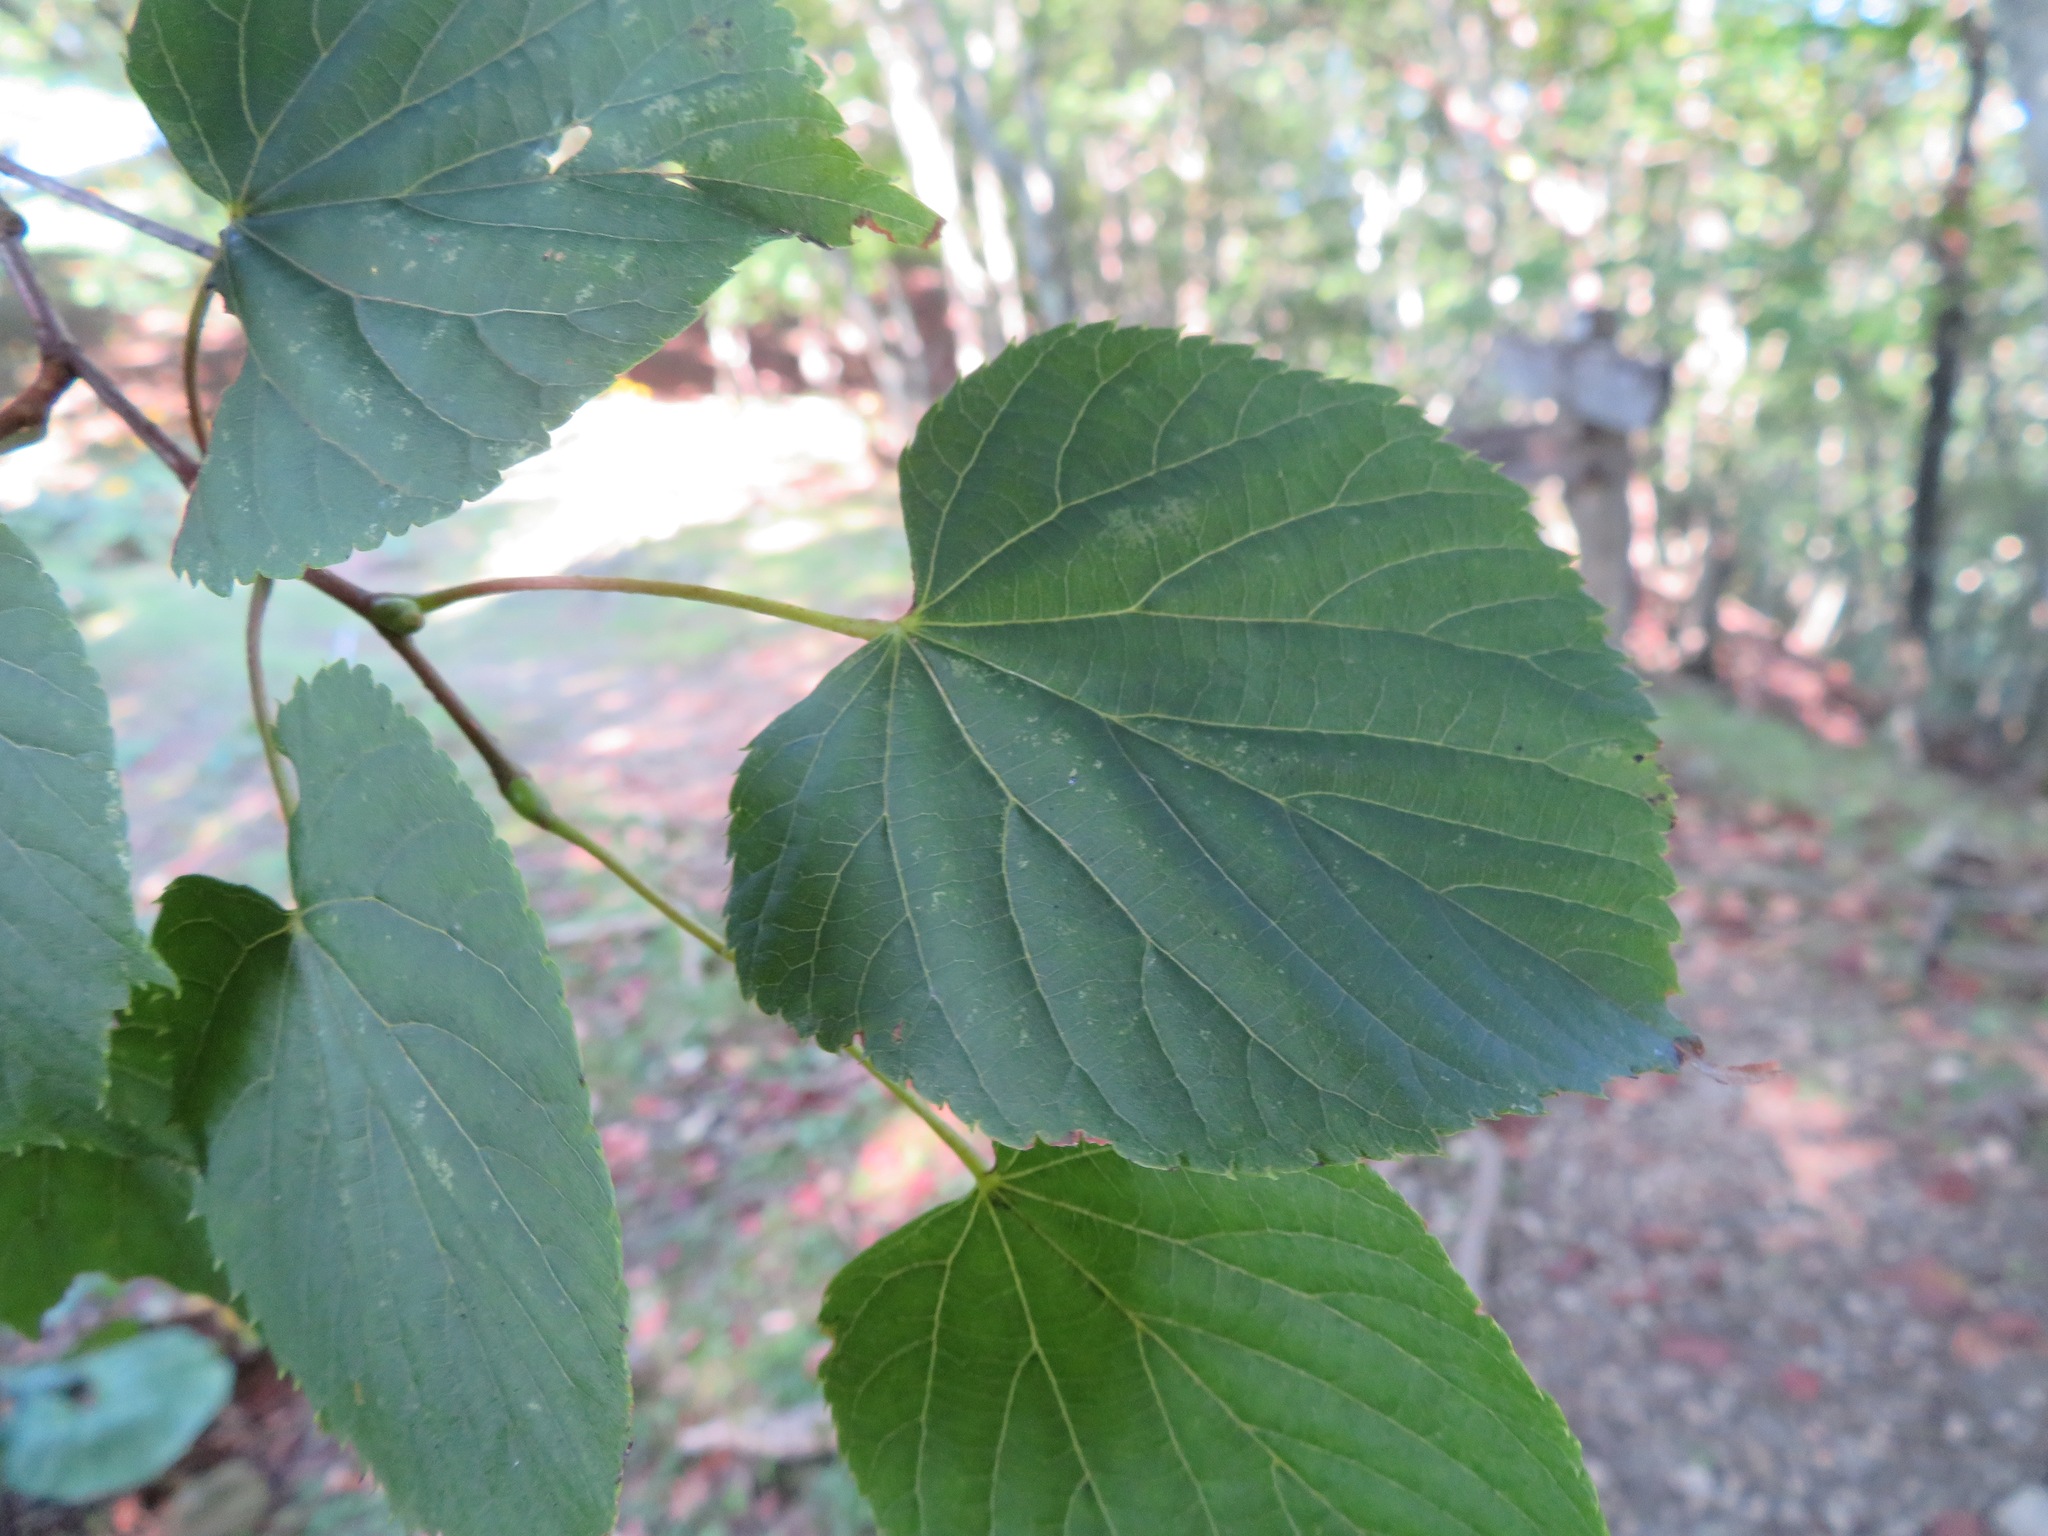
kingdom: Plantae
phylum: Tracheophyta
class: Magnoliopsida
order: Malvales
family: Malvaceae
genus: Tilia
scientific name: Tilia japonica
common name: Japanese lime
